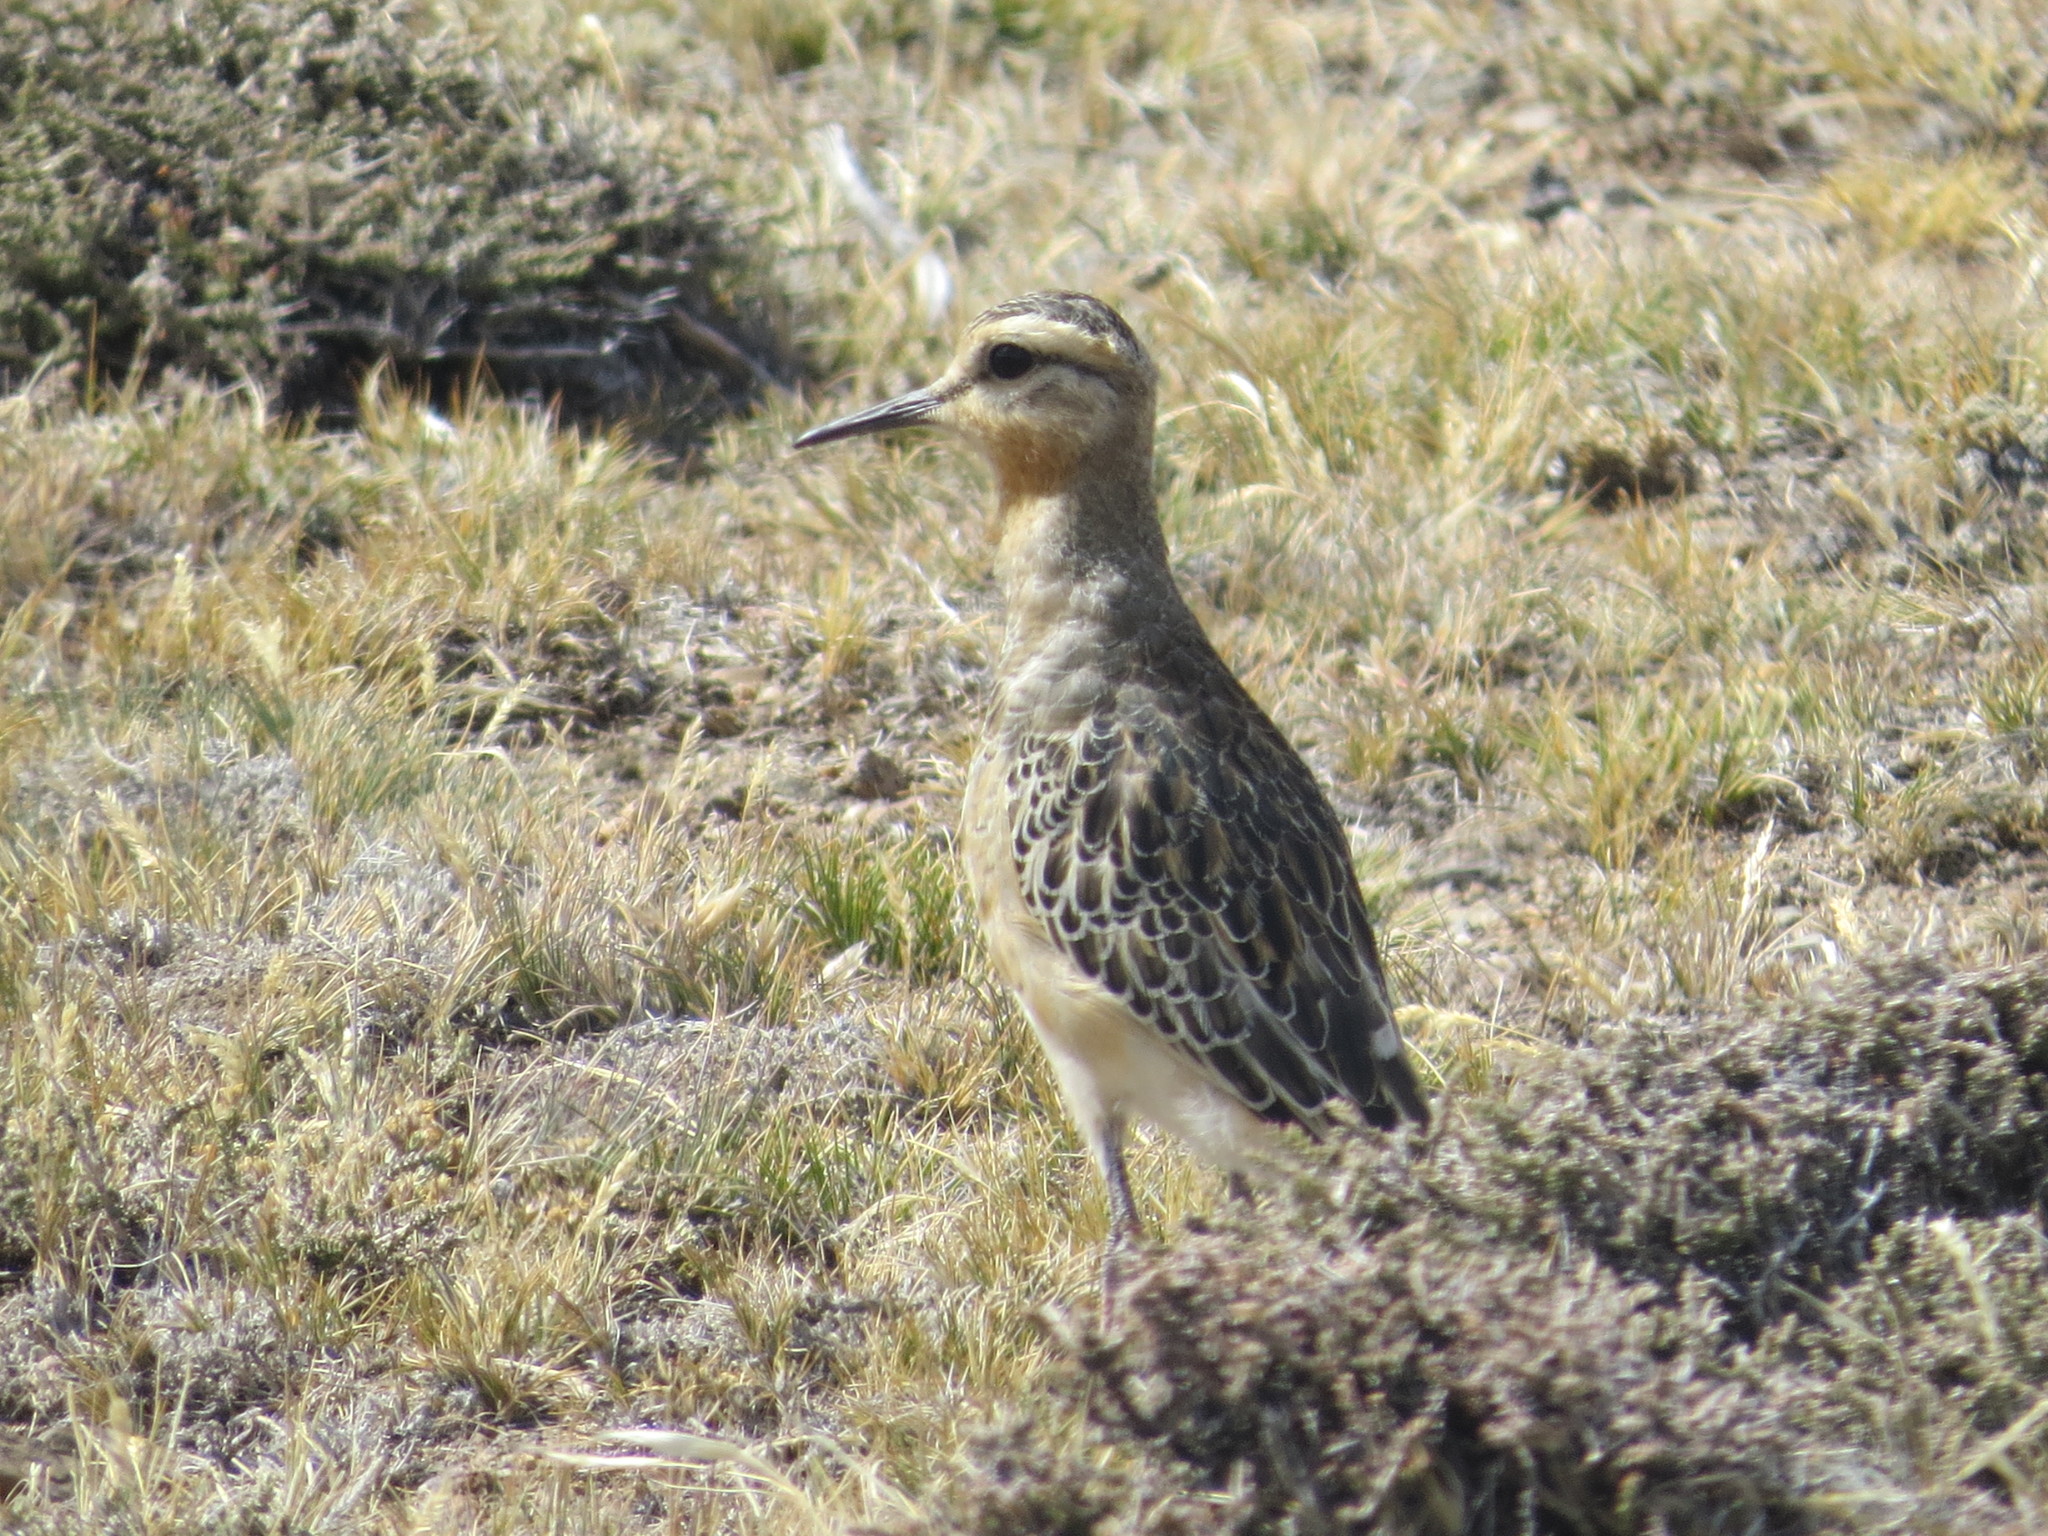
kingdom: Animalia
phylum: Chordata
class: Aves
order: Charadriiformes
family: Charadriidae
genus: Oreopholus
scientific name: Oreopholus ruficollis
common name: Tawny-throated dotterel
